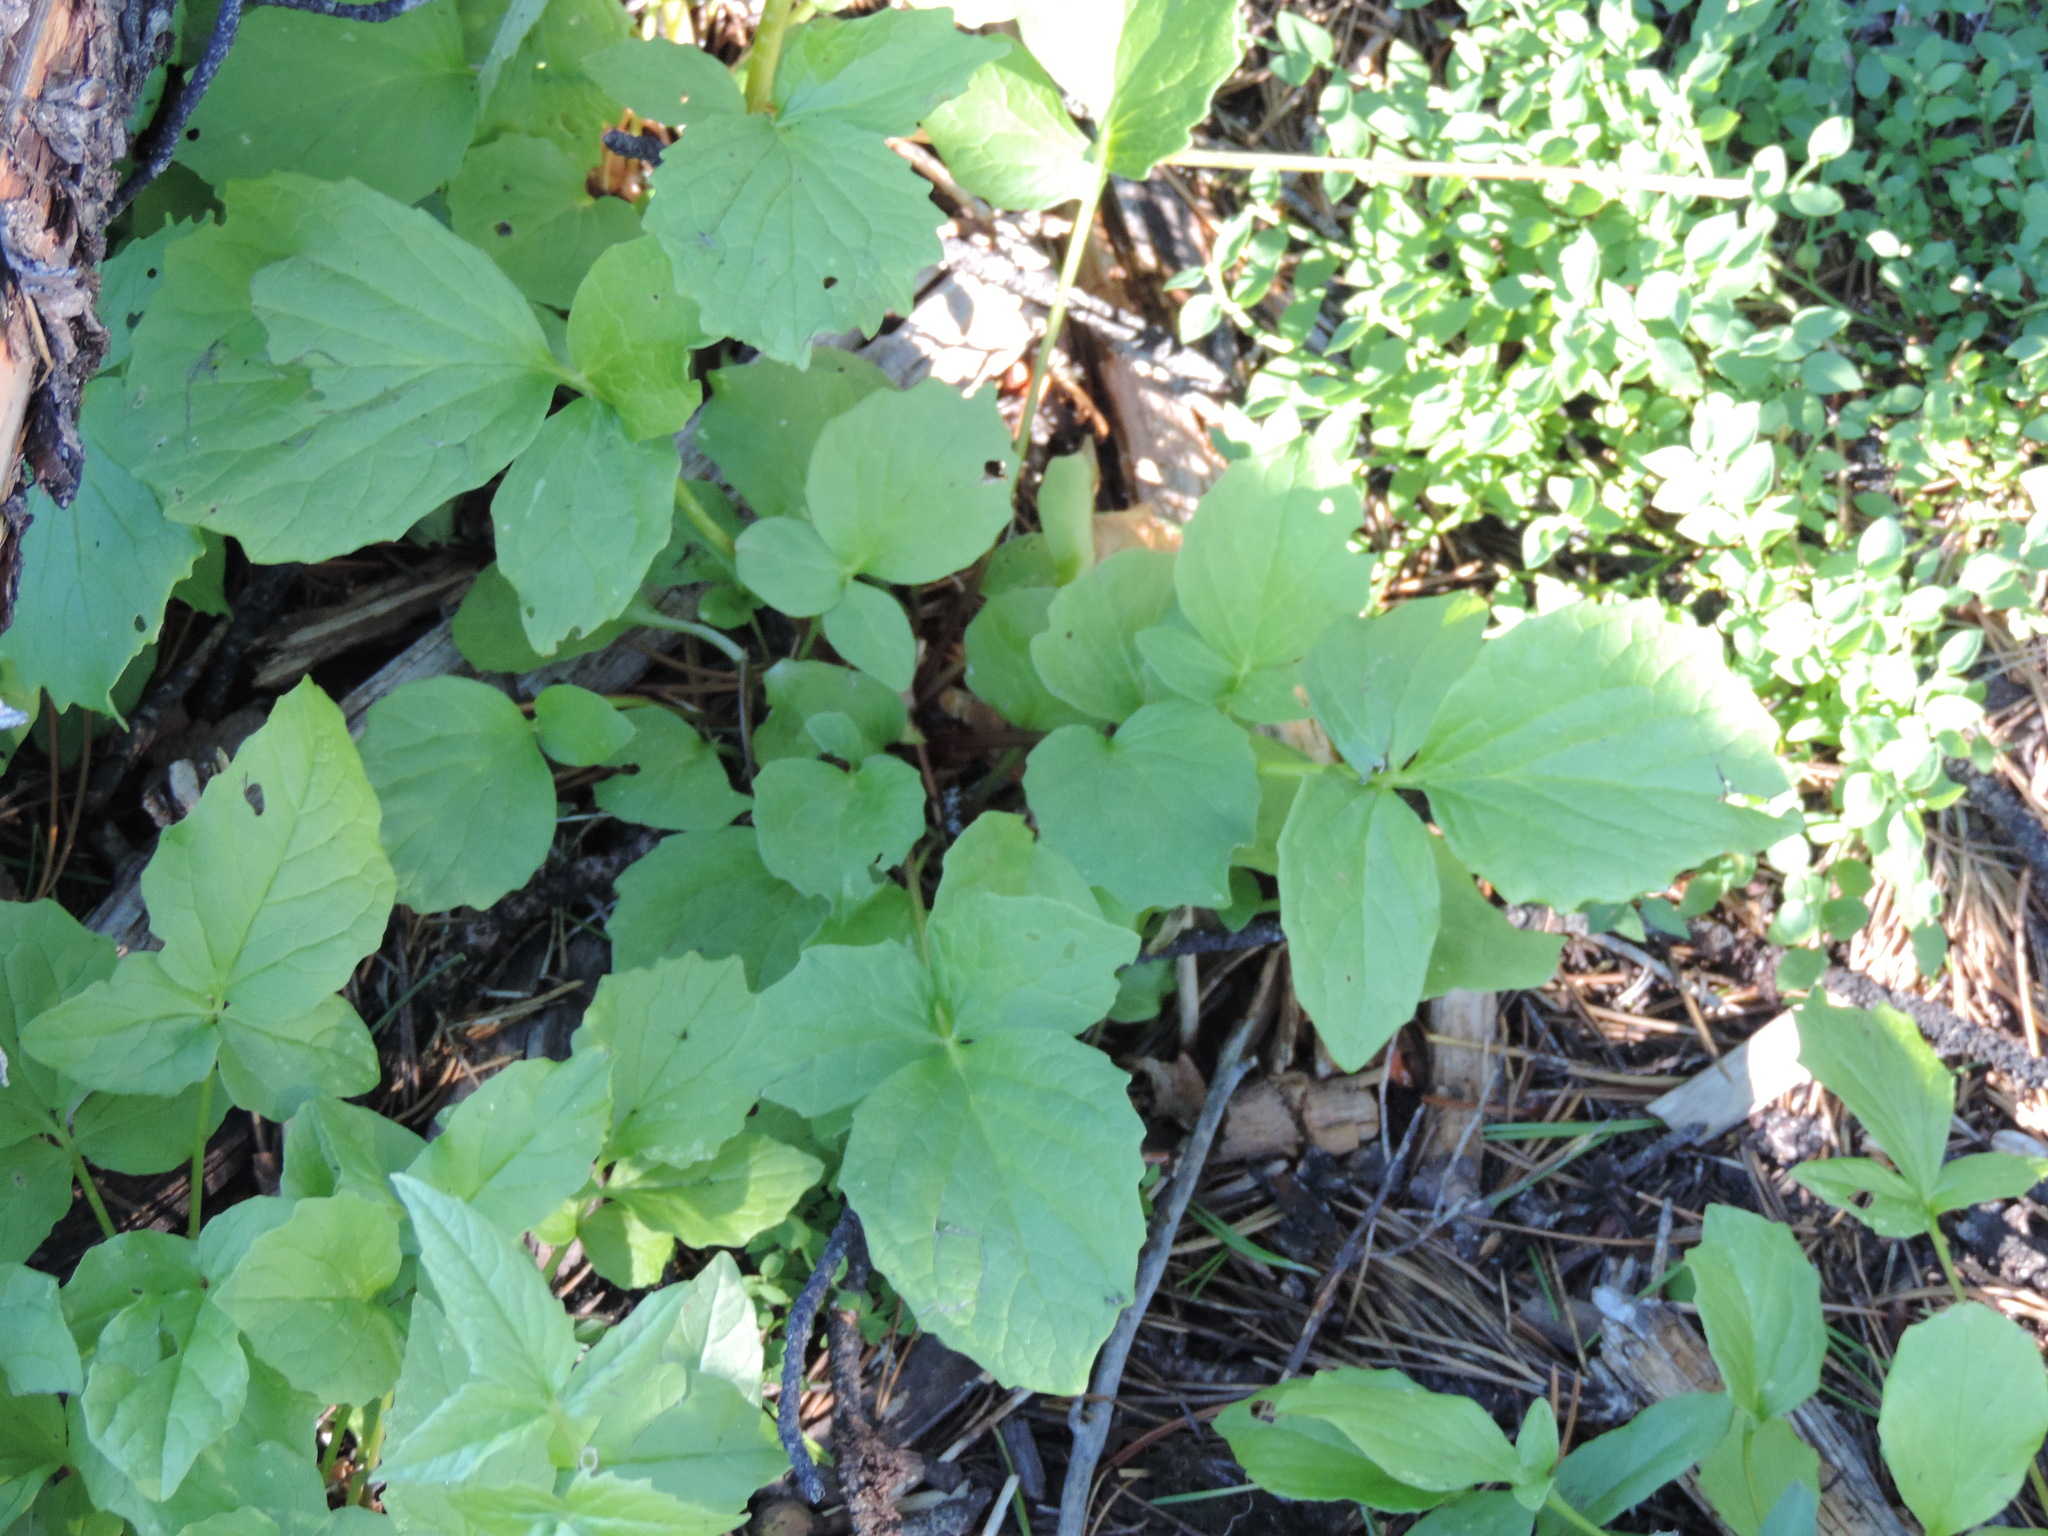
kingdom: Plantae
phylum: Tracheophyta
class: Magnoliopsida
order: Dipsacales
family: Caprifoliaceae
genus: Valeriana
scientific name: Valeriana sitchensis
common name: Pacific valerian
